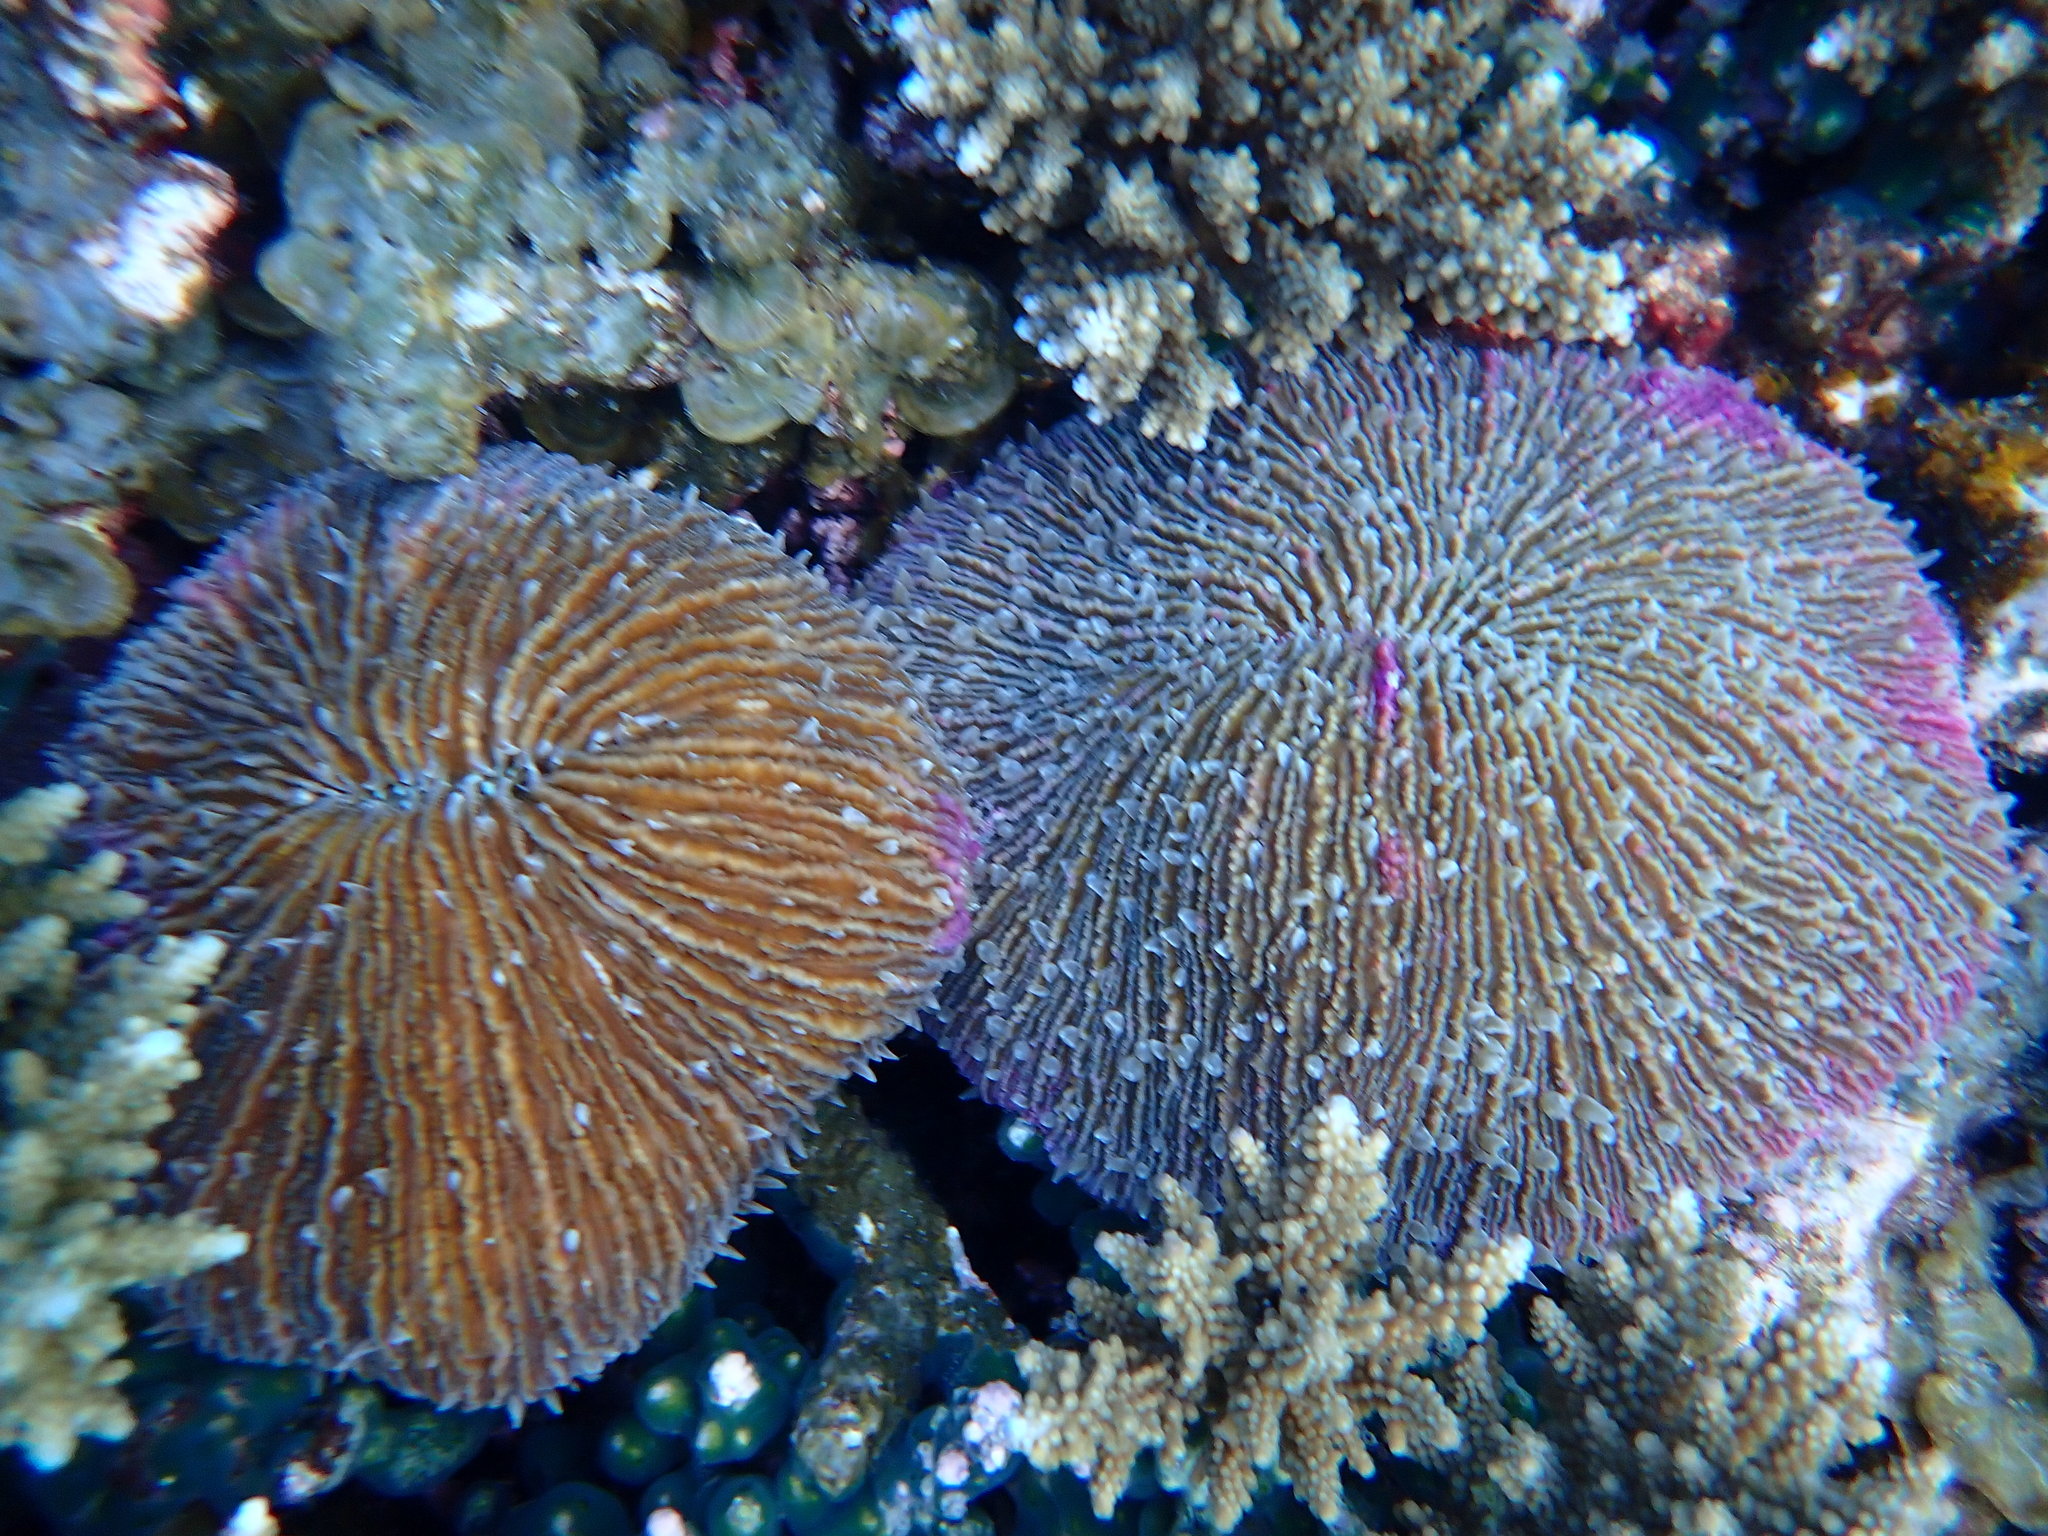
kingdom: Animalia
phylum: Cnidaria
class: Anthozoa
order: Scleractinia
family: Fungiidae
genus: Fungia
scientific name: Fungia fungites
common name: Mushroom coral
